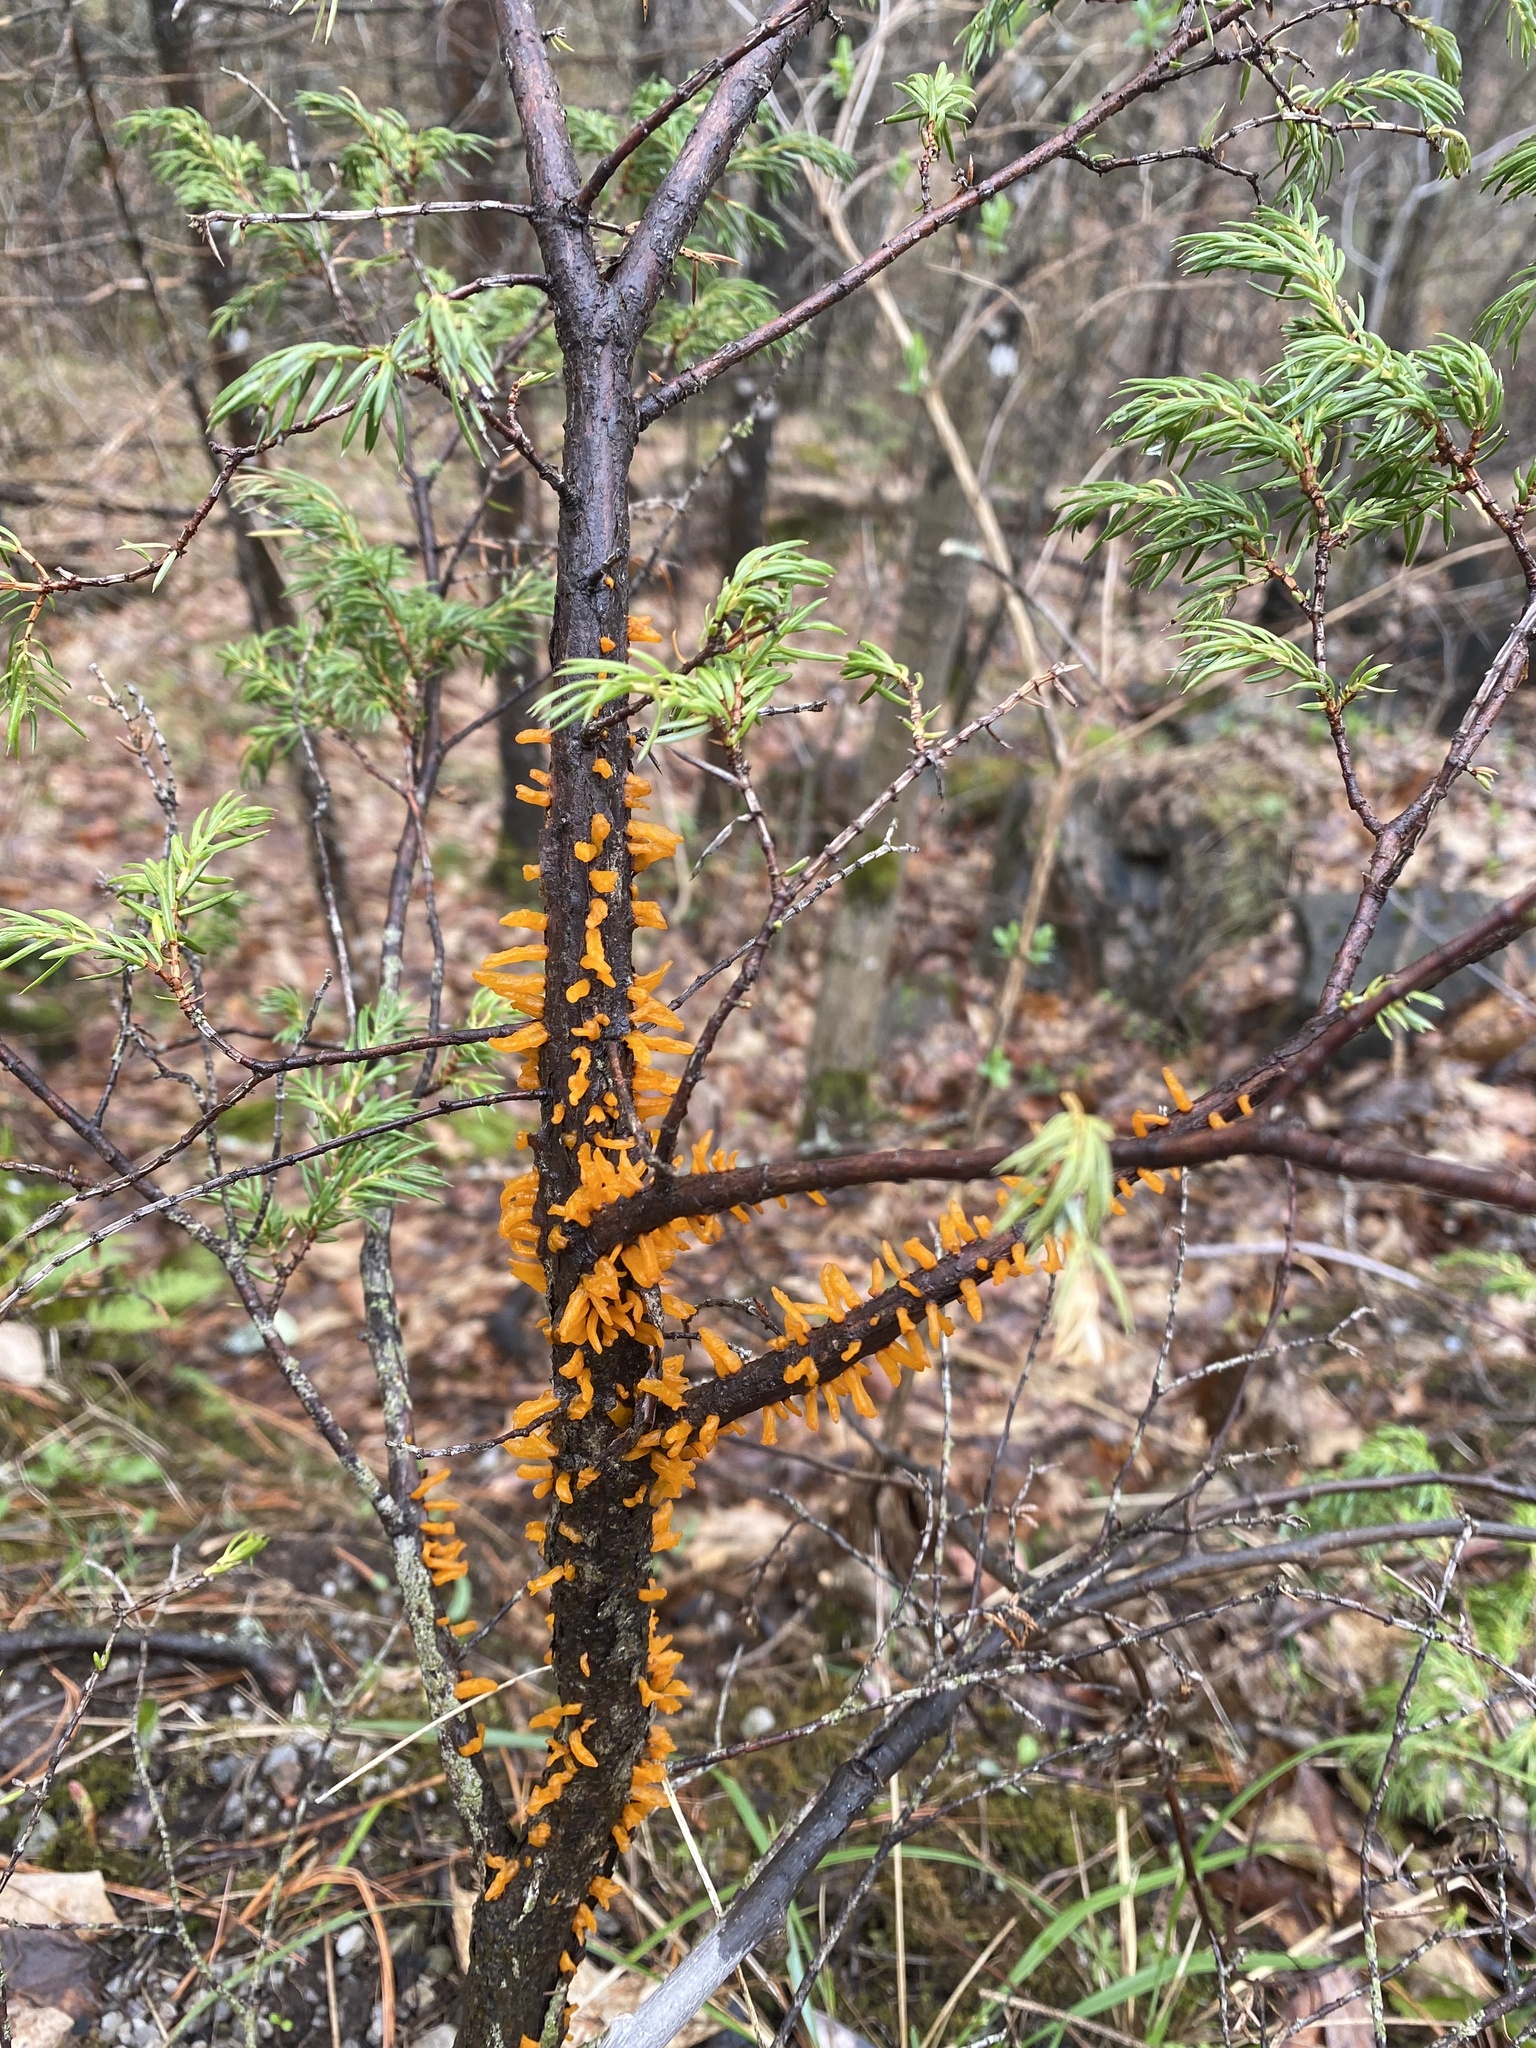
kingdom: Fungi
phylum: Basidiomycota
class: Pucciniomycetes
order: Pucciniales
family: Gymnosporangiaceae
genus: Gymnosporangium
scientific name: Gymnosporangium clavariiforme
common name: Tongues of fire
